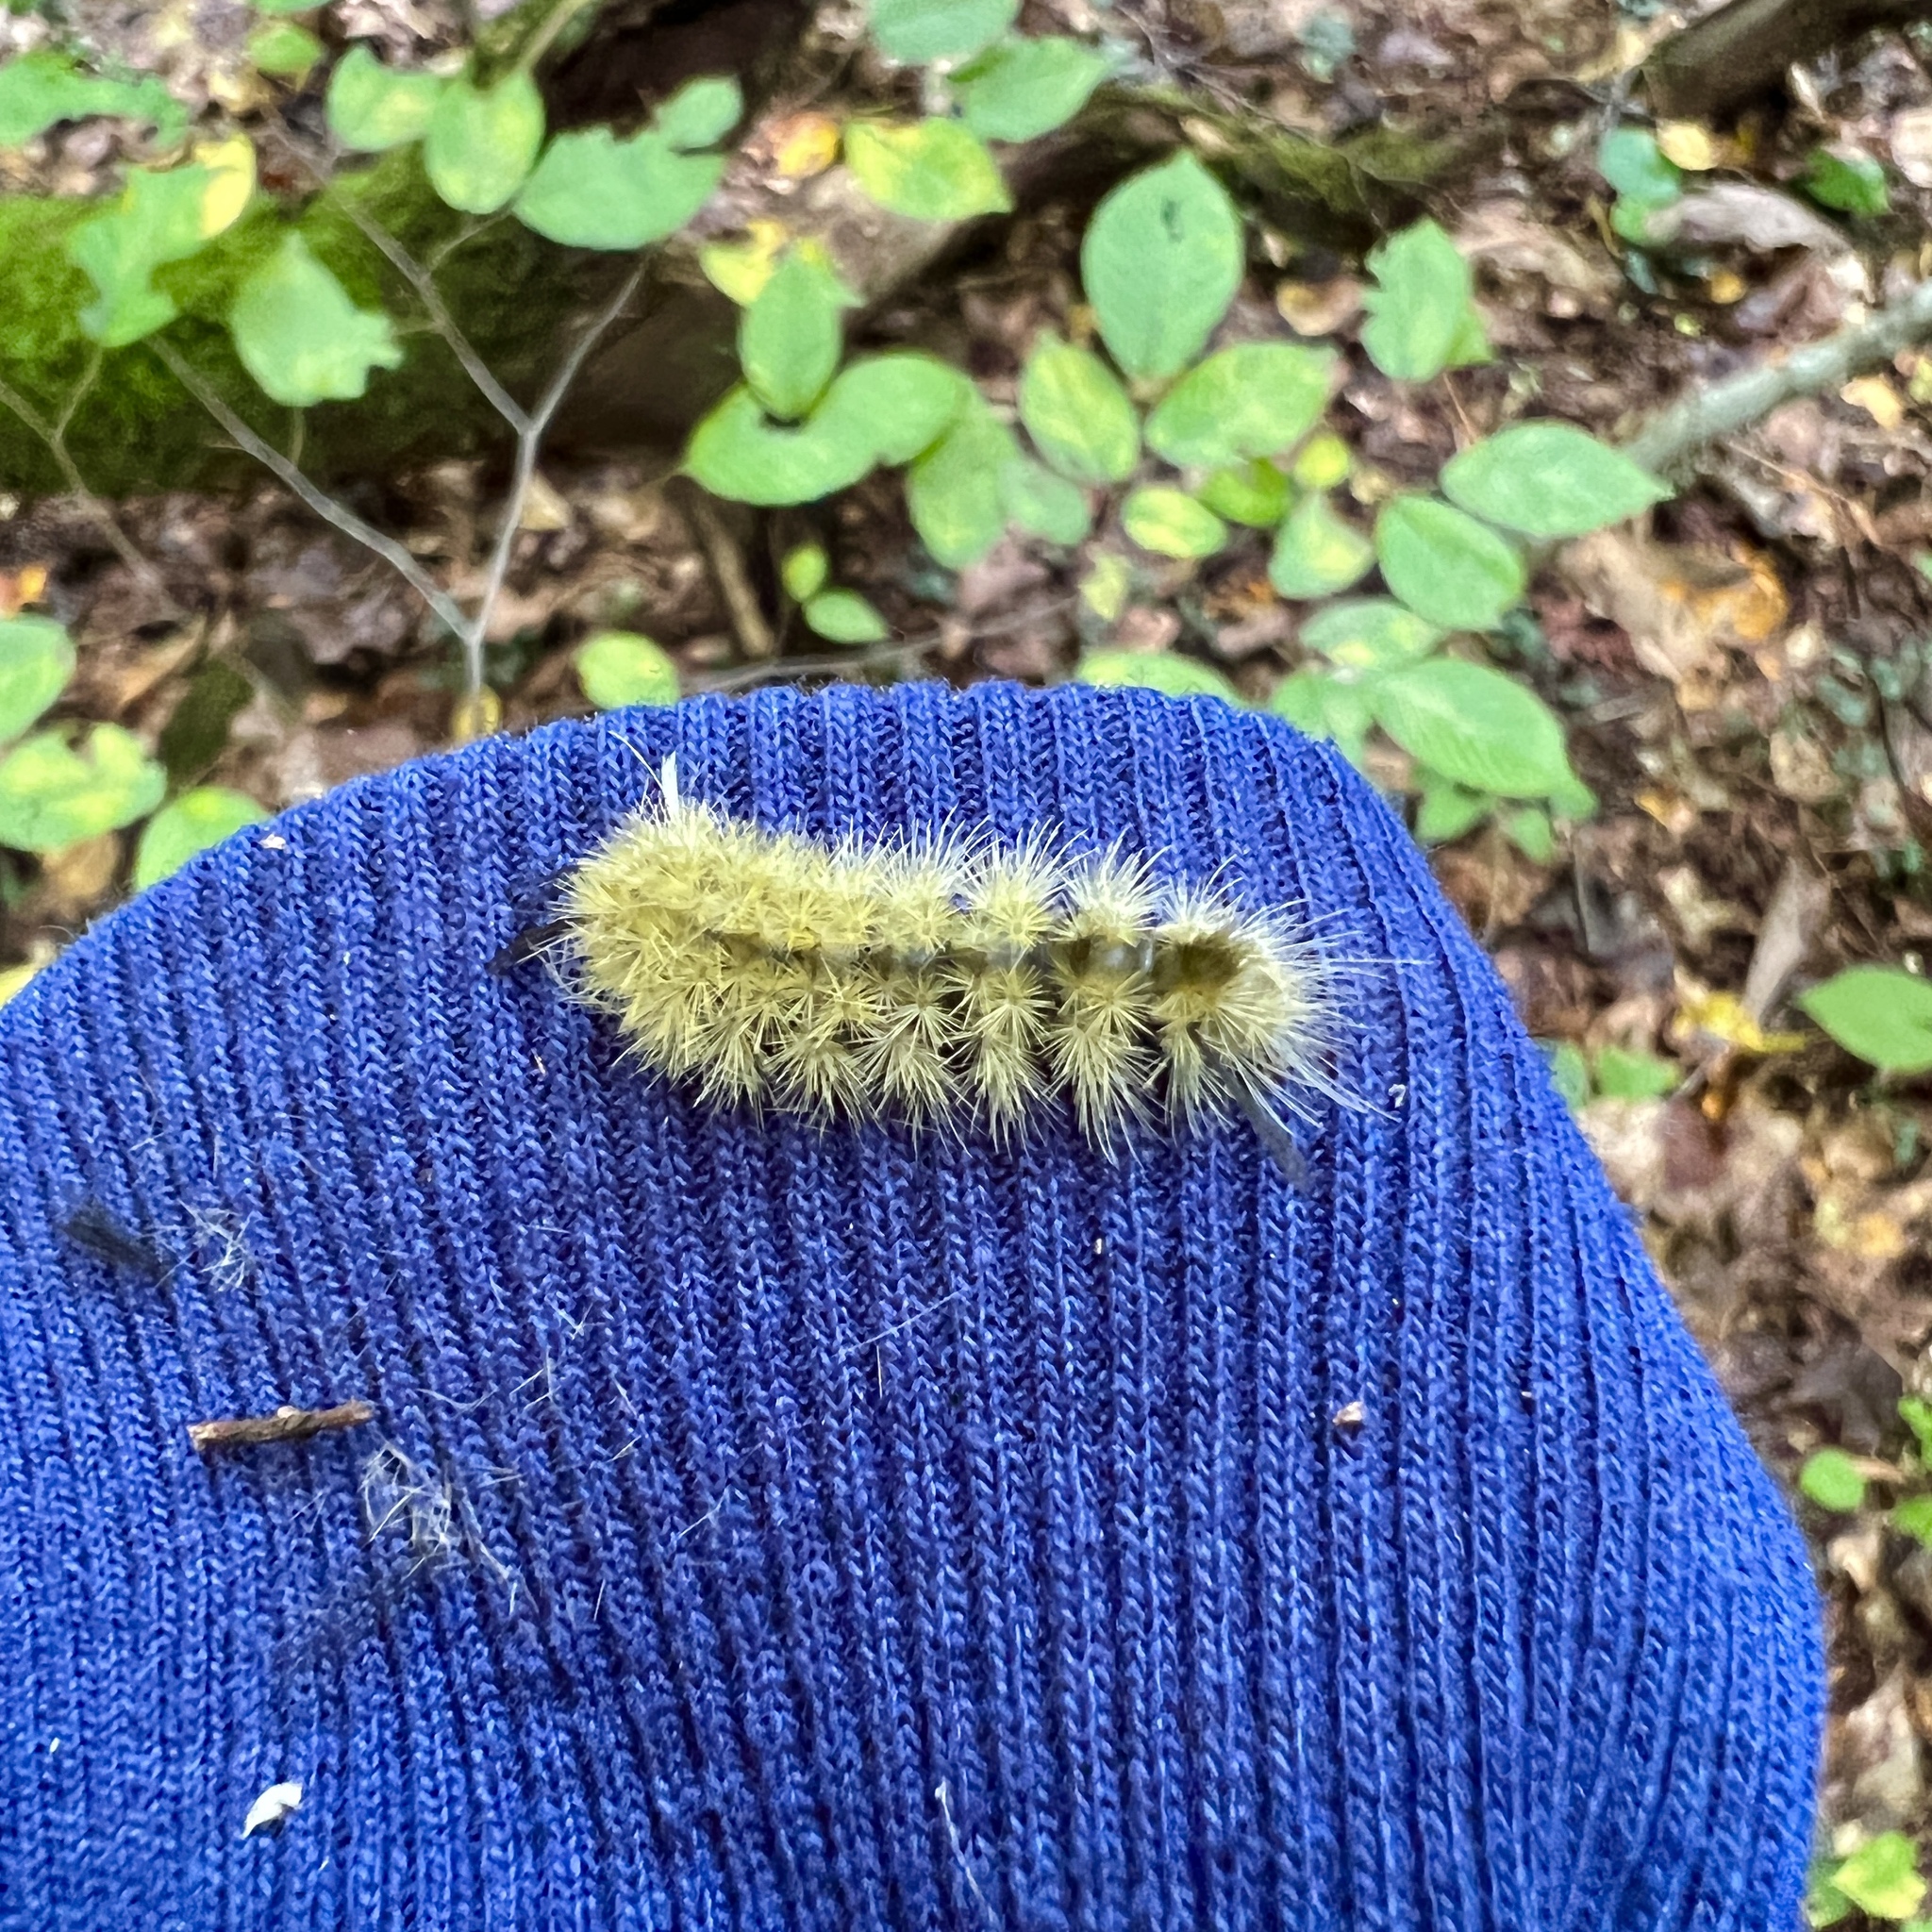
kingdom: Animalia
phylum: Arthropoda
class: Insecta
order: Lepidoptera
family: Erebidae
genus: Halysidota
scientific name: Halysidota tessellaris
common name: Banded tussock moth
